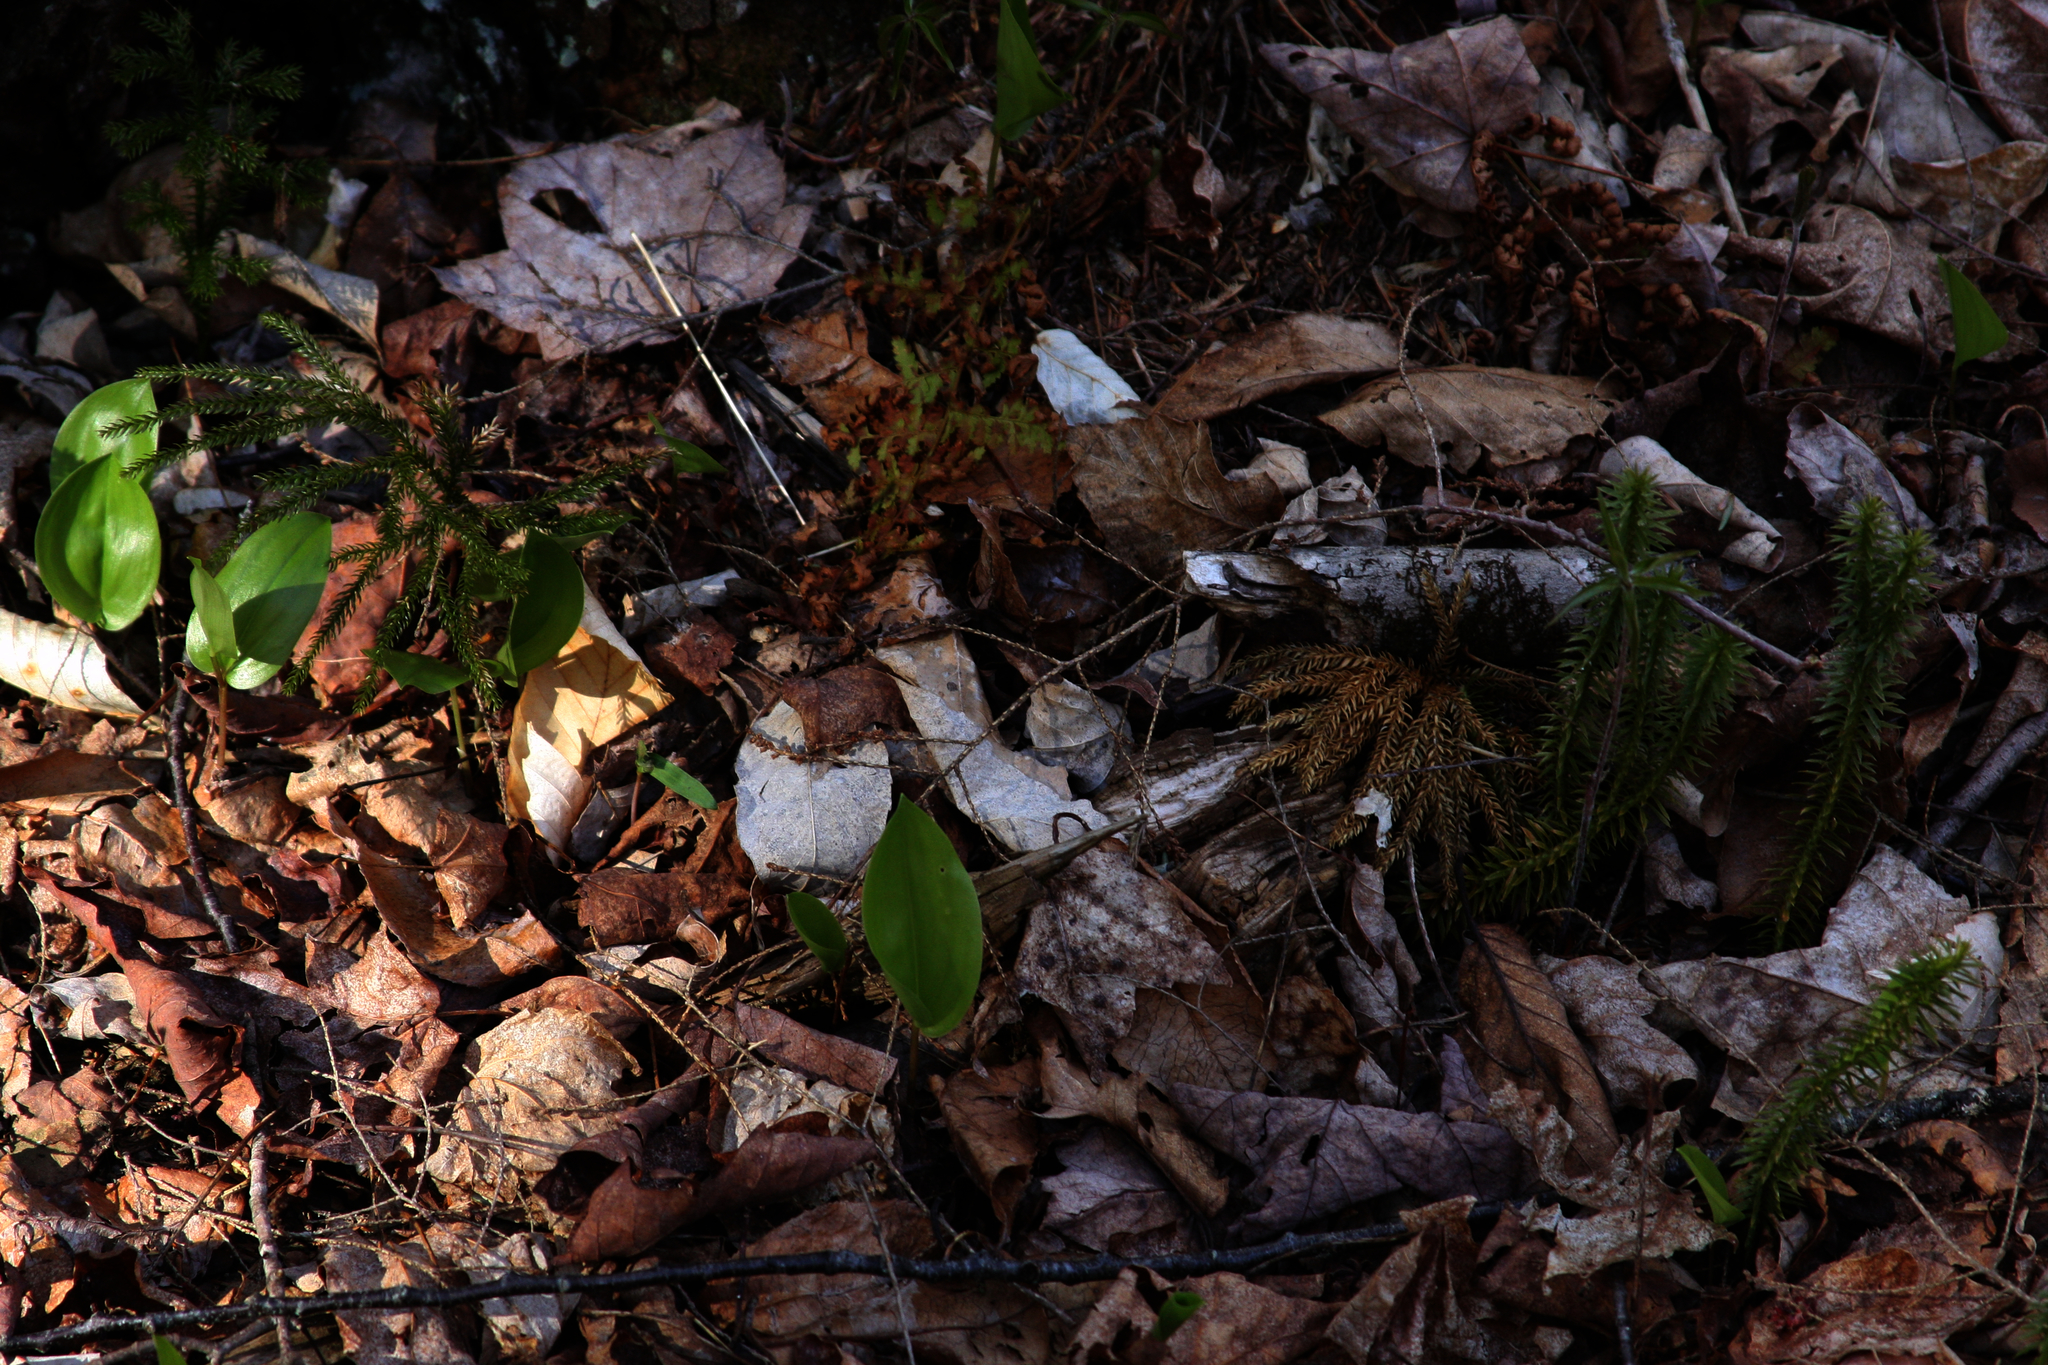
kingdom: Plantae
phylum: Tracheophyta
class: Liliopsida
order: Asparagales
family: Asparagaceae
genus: Maianthemum
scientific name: Maianthemum canadense
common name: False lily-of-the-valley
